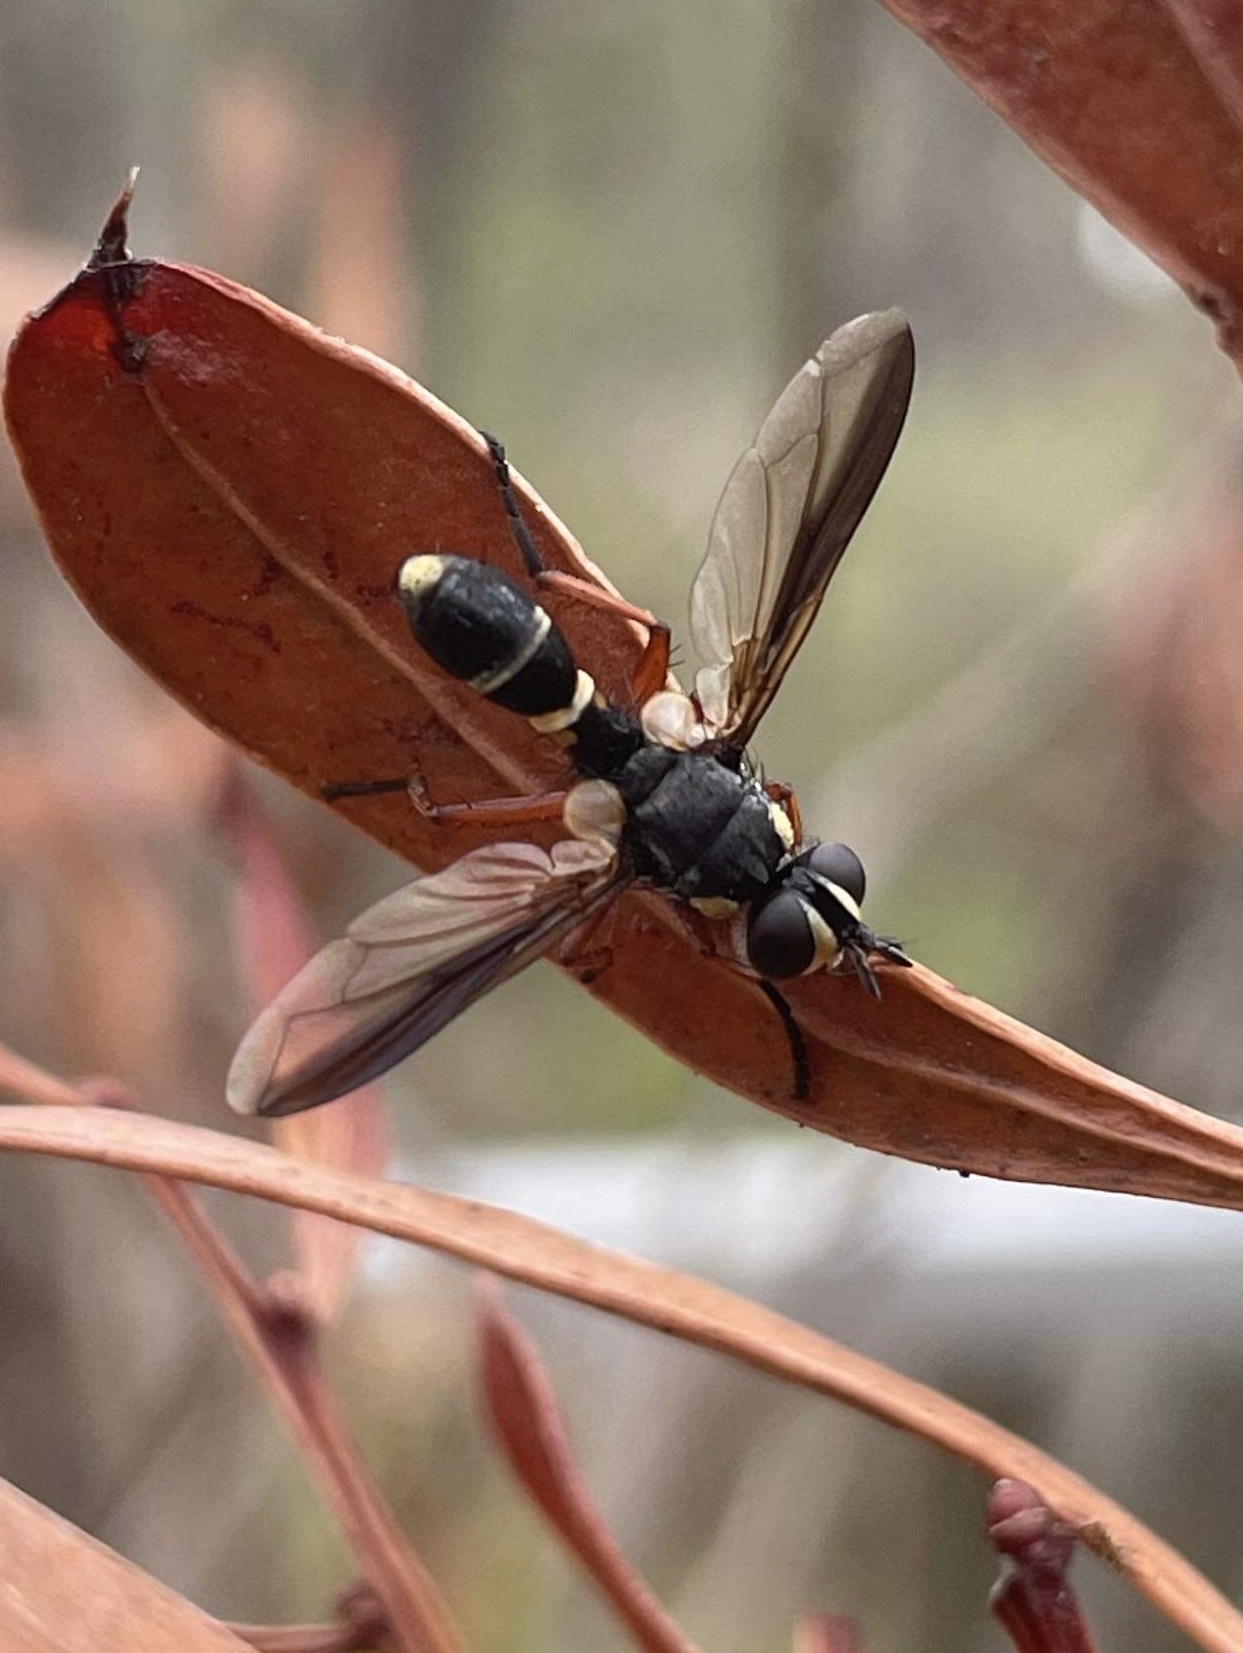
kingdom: Animalia
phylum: Arthropoda
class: Insecta
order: Diptera
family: Tachinidae
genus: Cylindromyia
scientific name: Cylindromyia nigricosta
